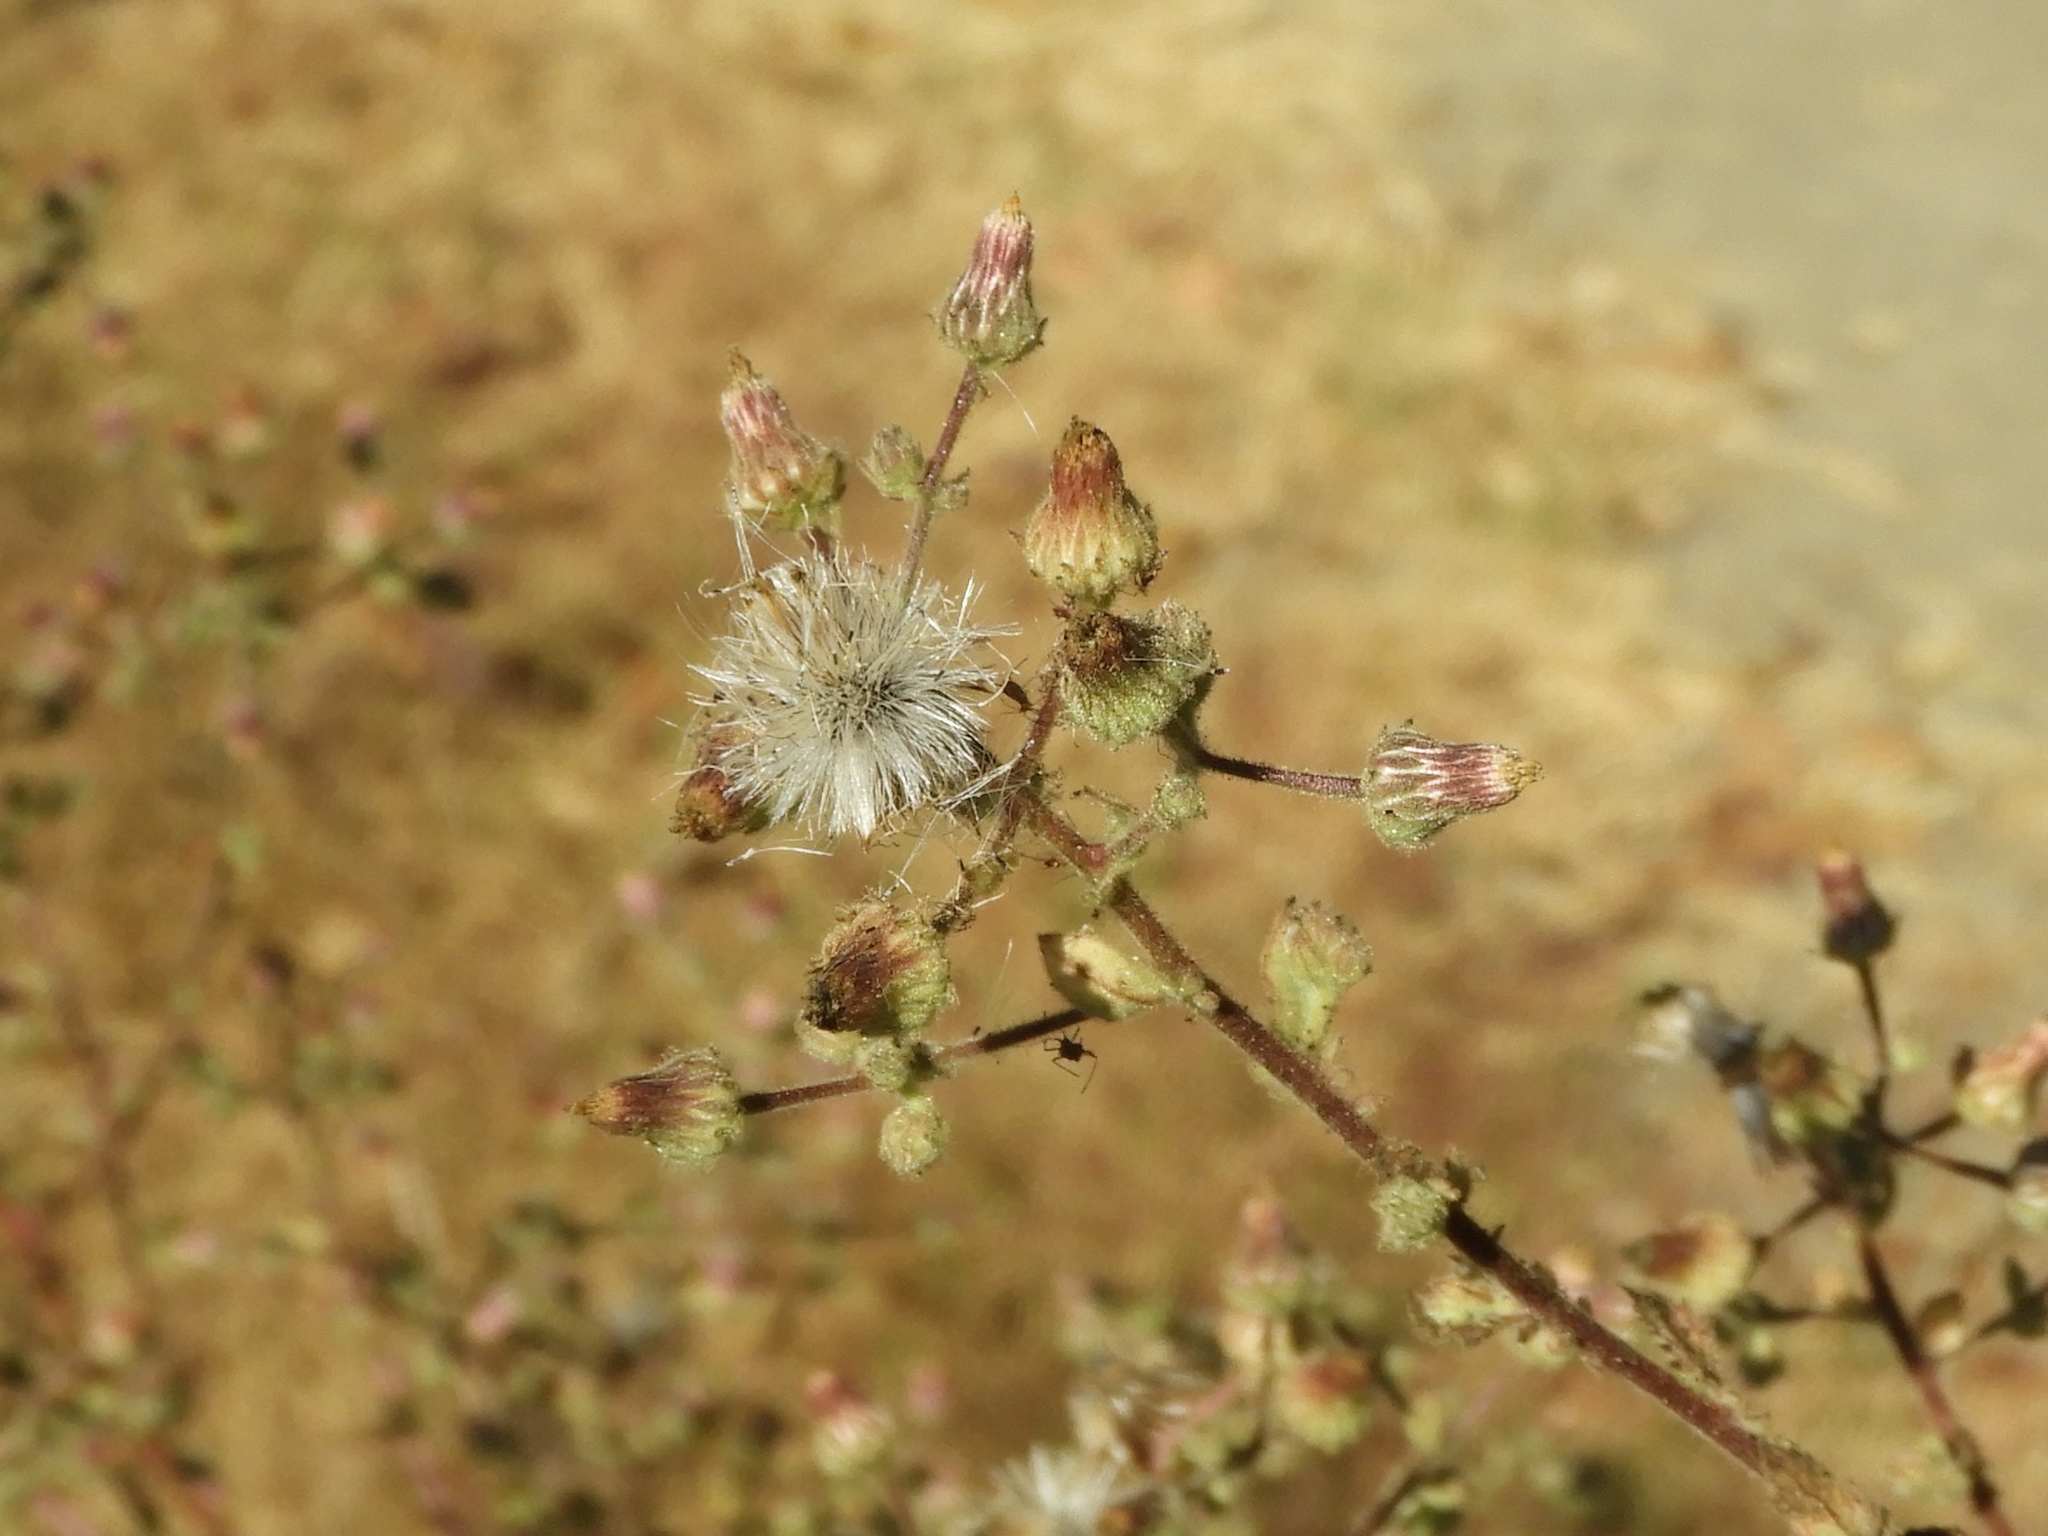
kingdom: Plantae
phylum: Tracheophyta
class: Magnoliopsida
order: Asterales
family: Asteraceae
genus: Pseudoconyza
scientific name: Pseudoconyza viscosa
